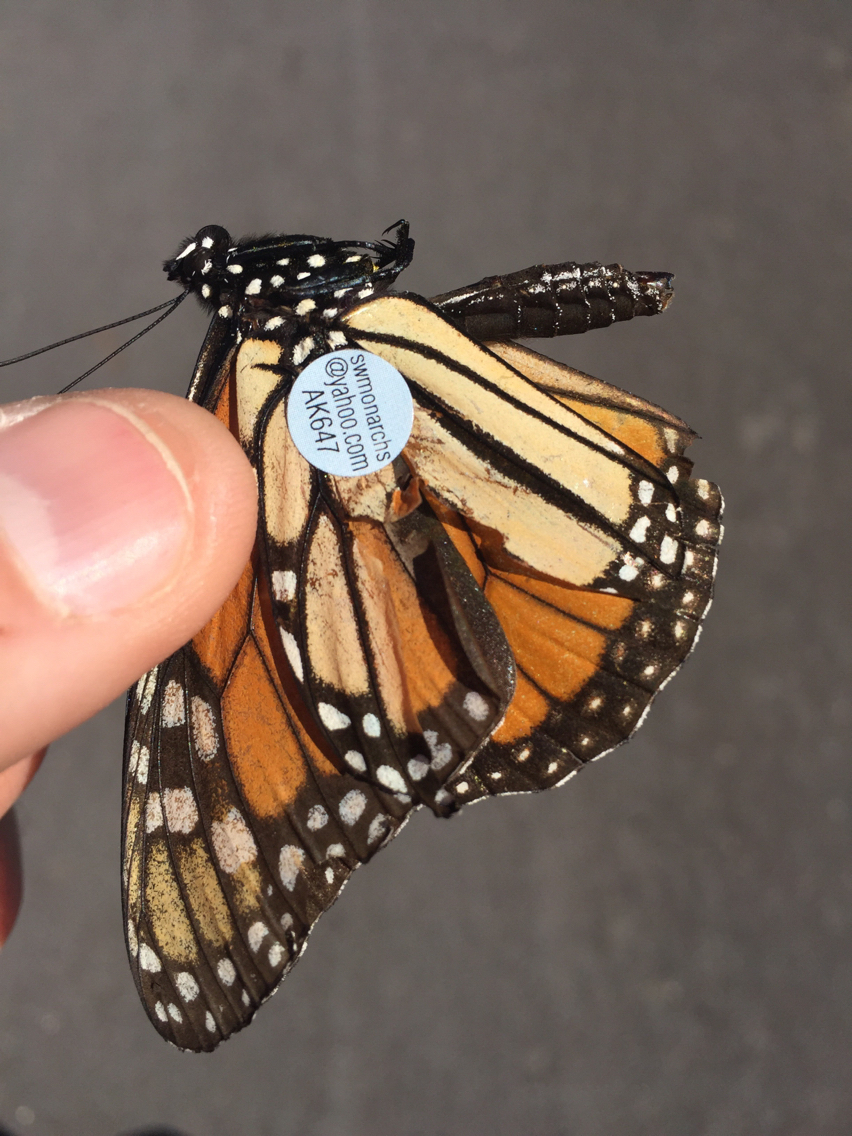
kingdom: Animalia
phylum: Arthropoda
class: Insecta
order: Lepidoptera
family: Nymphalidae
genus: Danaus
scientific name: Danaus plexippus
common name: Monarch
